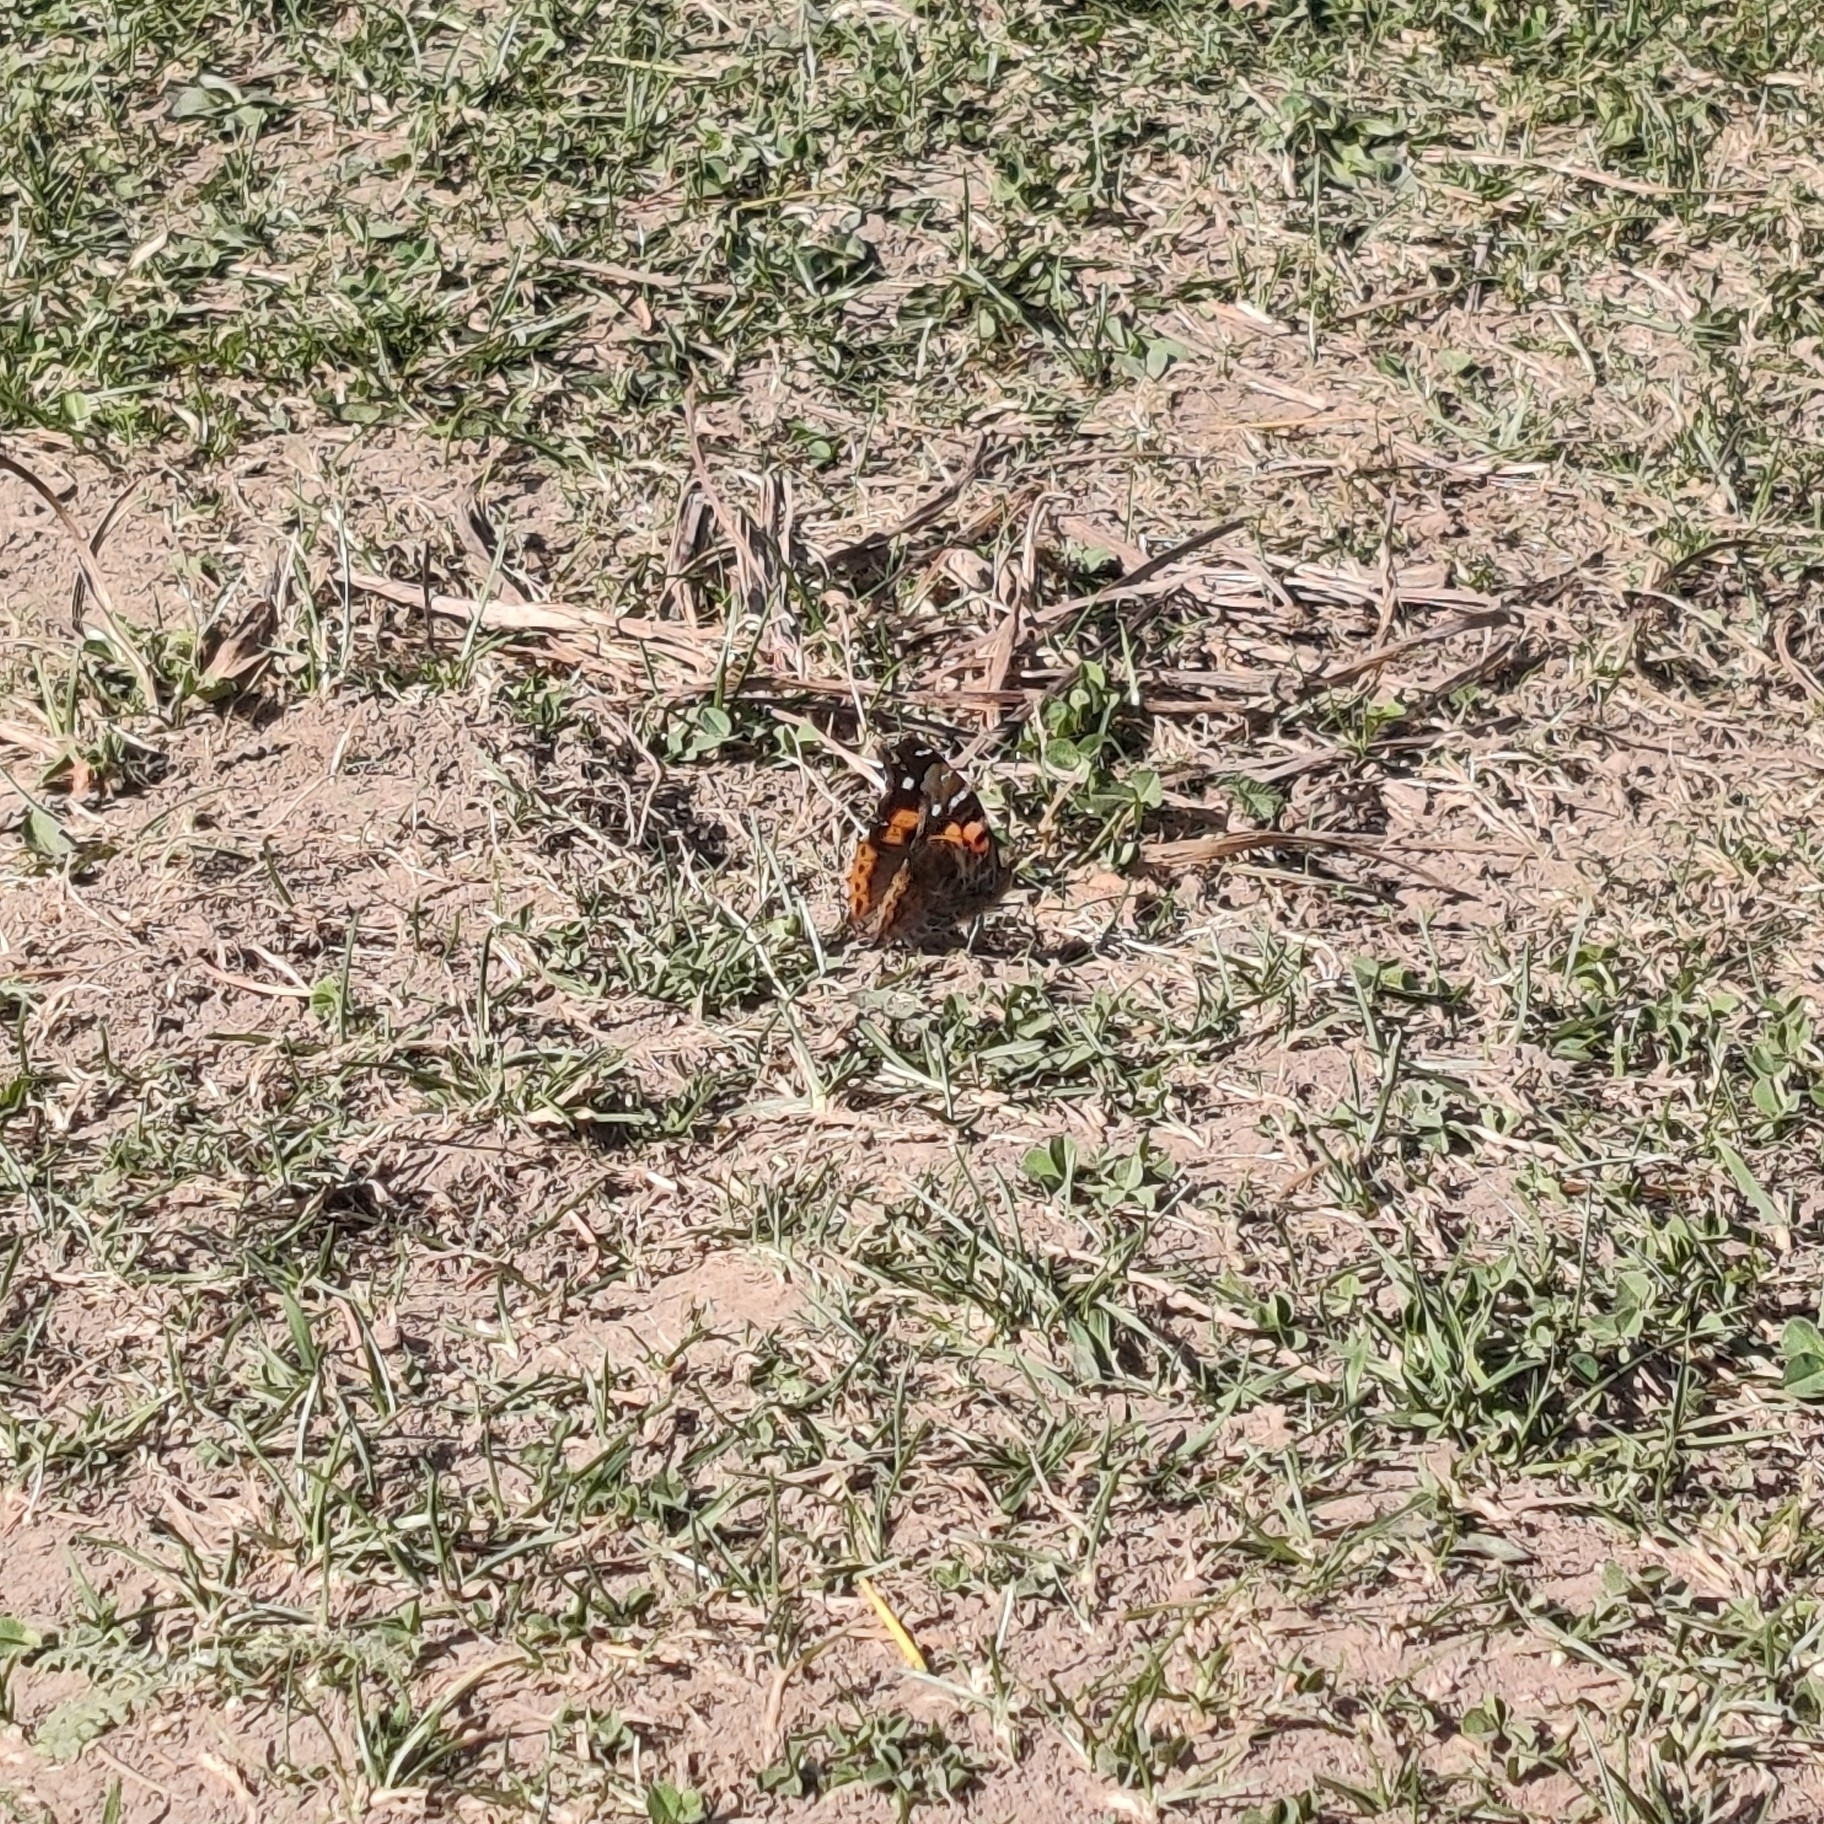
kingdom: Animalia
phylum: Arthropoda
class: Insecta
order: Lepidoptera
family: Nymphalidae
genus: Vanessa
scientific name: Vanessa indica
